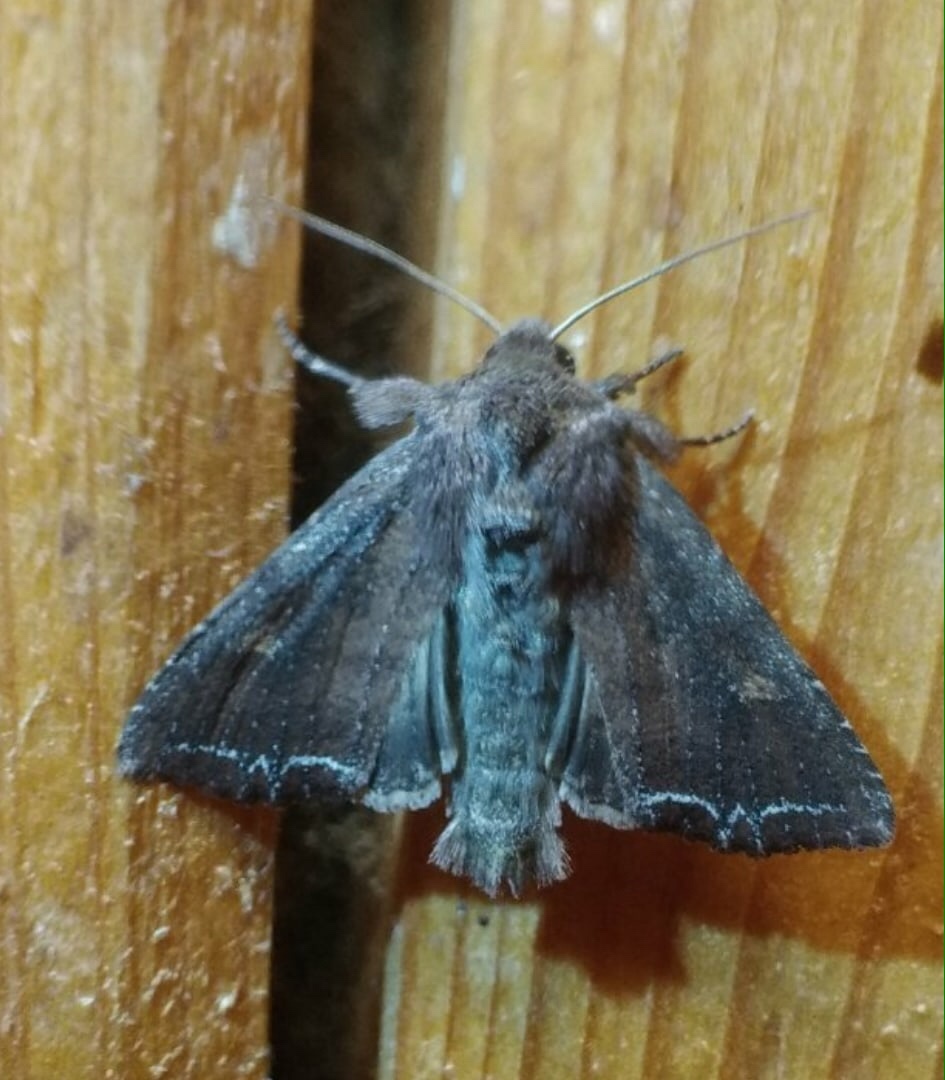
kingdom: Animalia
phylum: Arthropoda
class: Insecta
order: Lepidoptera
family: Noctuidae
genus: Lacanobia
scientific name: Lacanobia suasa
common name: Dog's tooth
